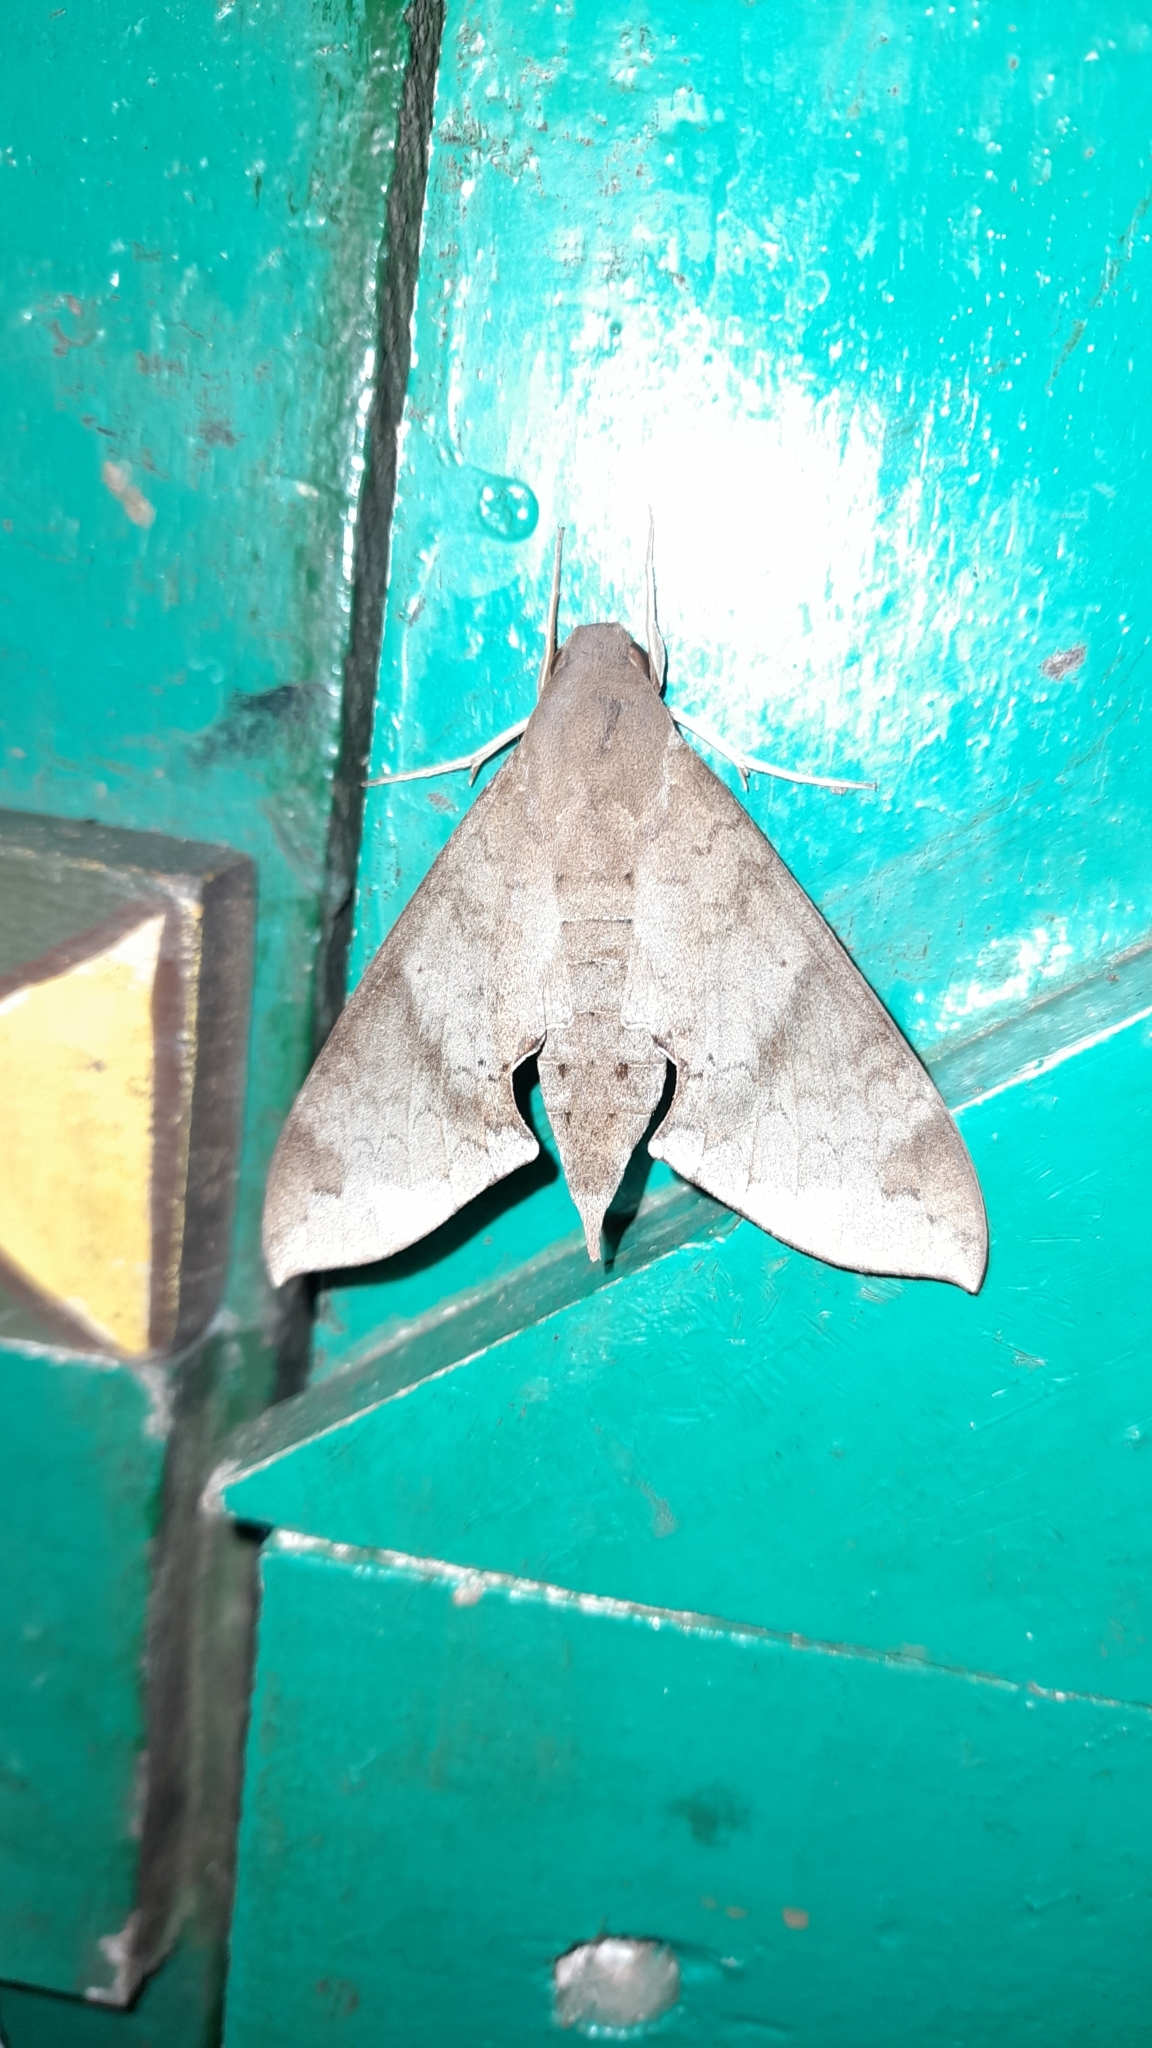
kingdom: Animalia
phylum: Arthropoda
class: Insecta
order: Lepidoptera
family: Sphingidae
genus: Pachylioides
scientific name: Pachylioides resumens
